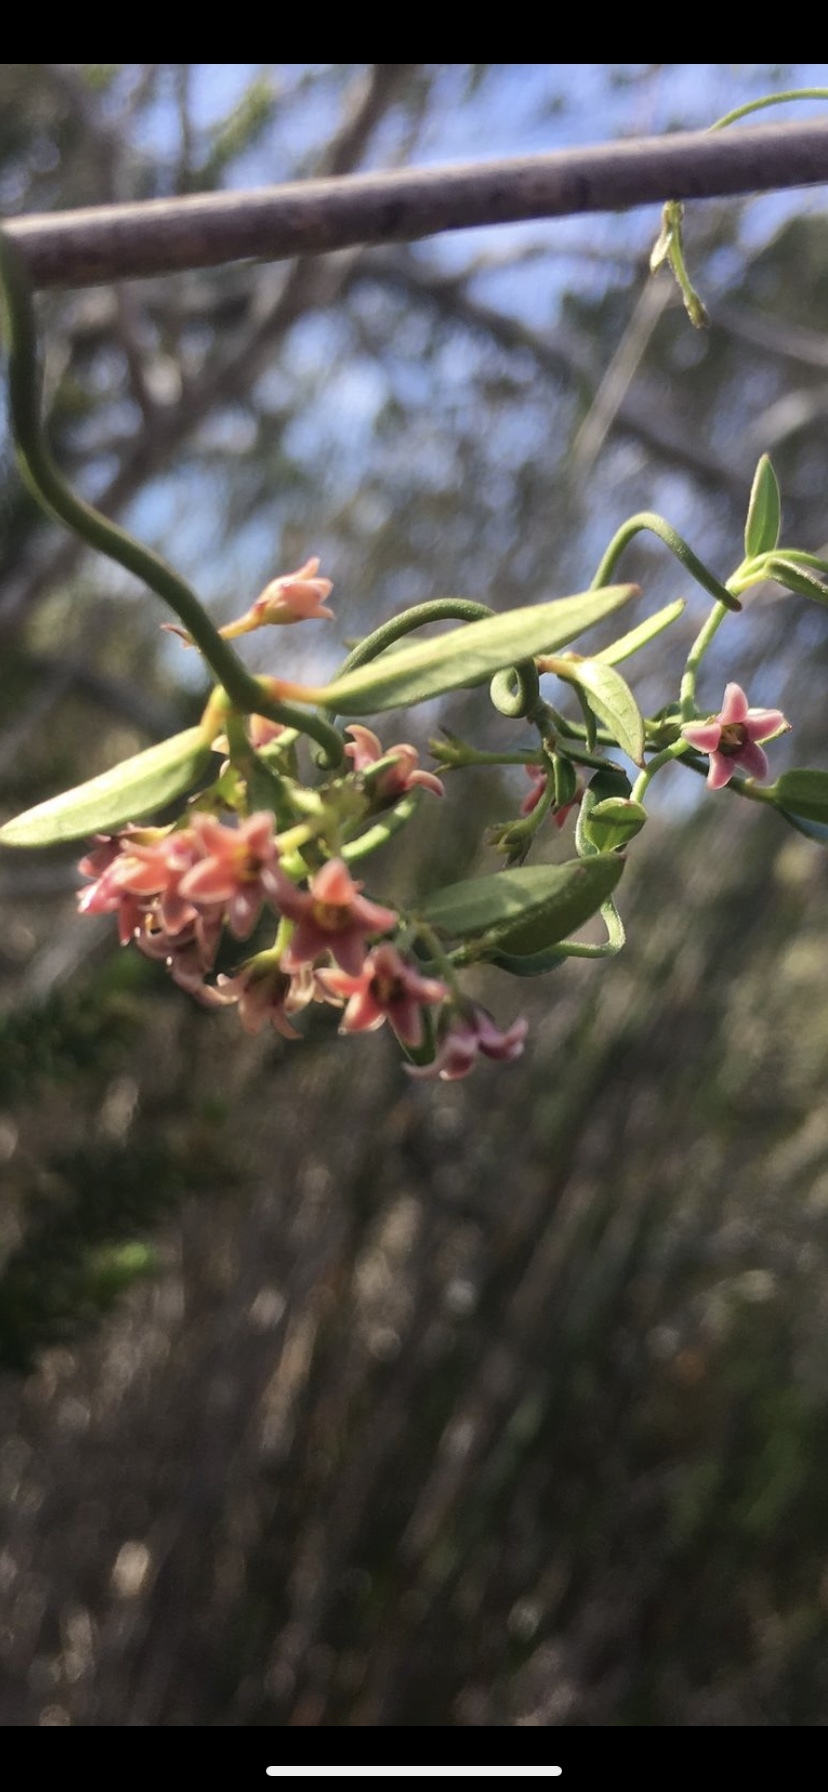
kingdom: Plantae
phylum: Tracheophyta
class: Magnoliopsida
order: Gentianales
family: Apocynaceae
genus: Astephanus
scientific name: Astephanus triflorus
